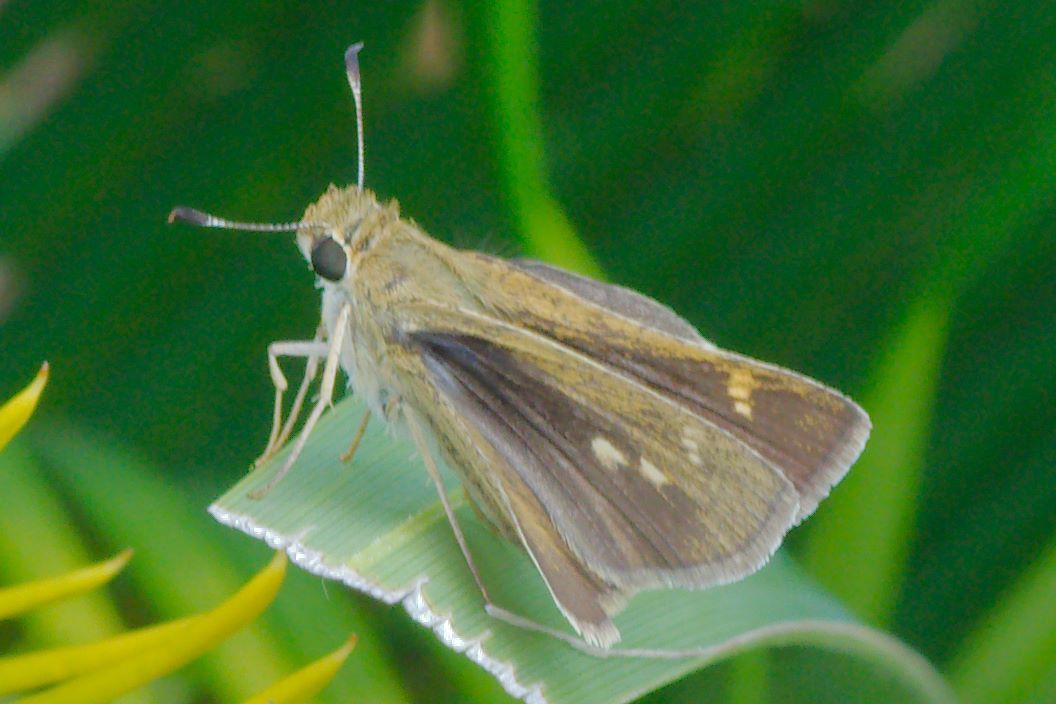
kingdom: Animalia
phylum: Arthropoda
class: Insecta
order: Lepidoptera
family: Hesperiidae
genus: Polites
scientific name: Polites vibex
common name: Whirlabout
